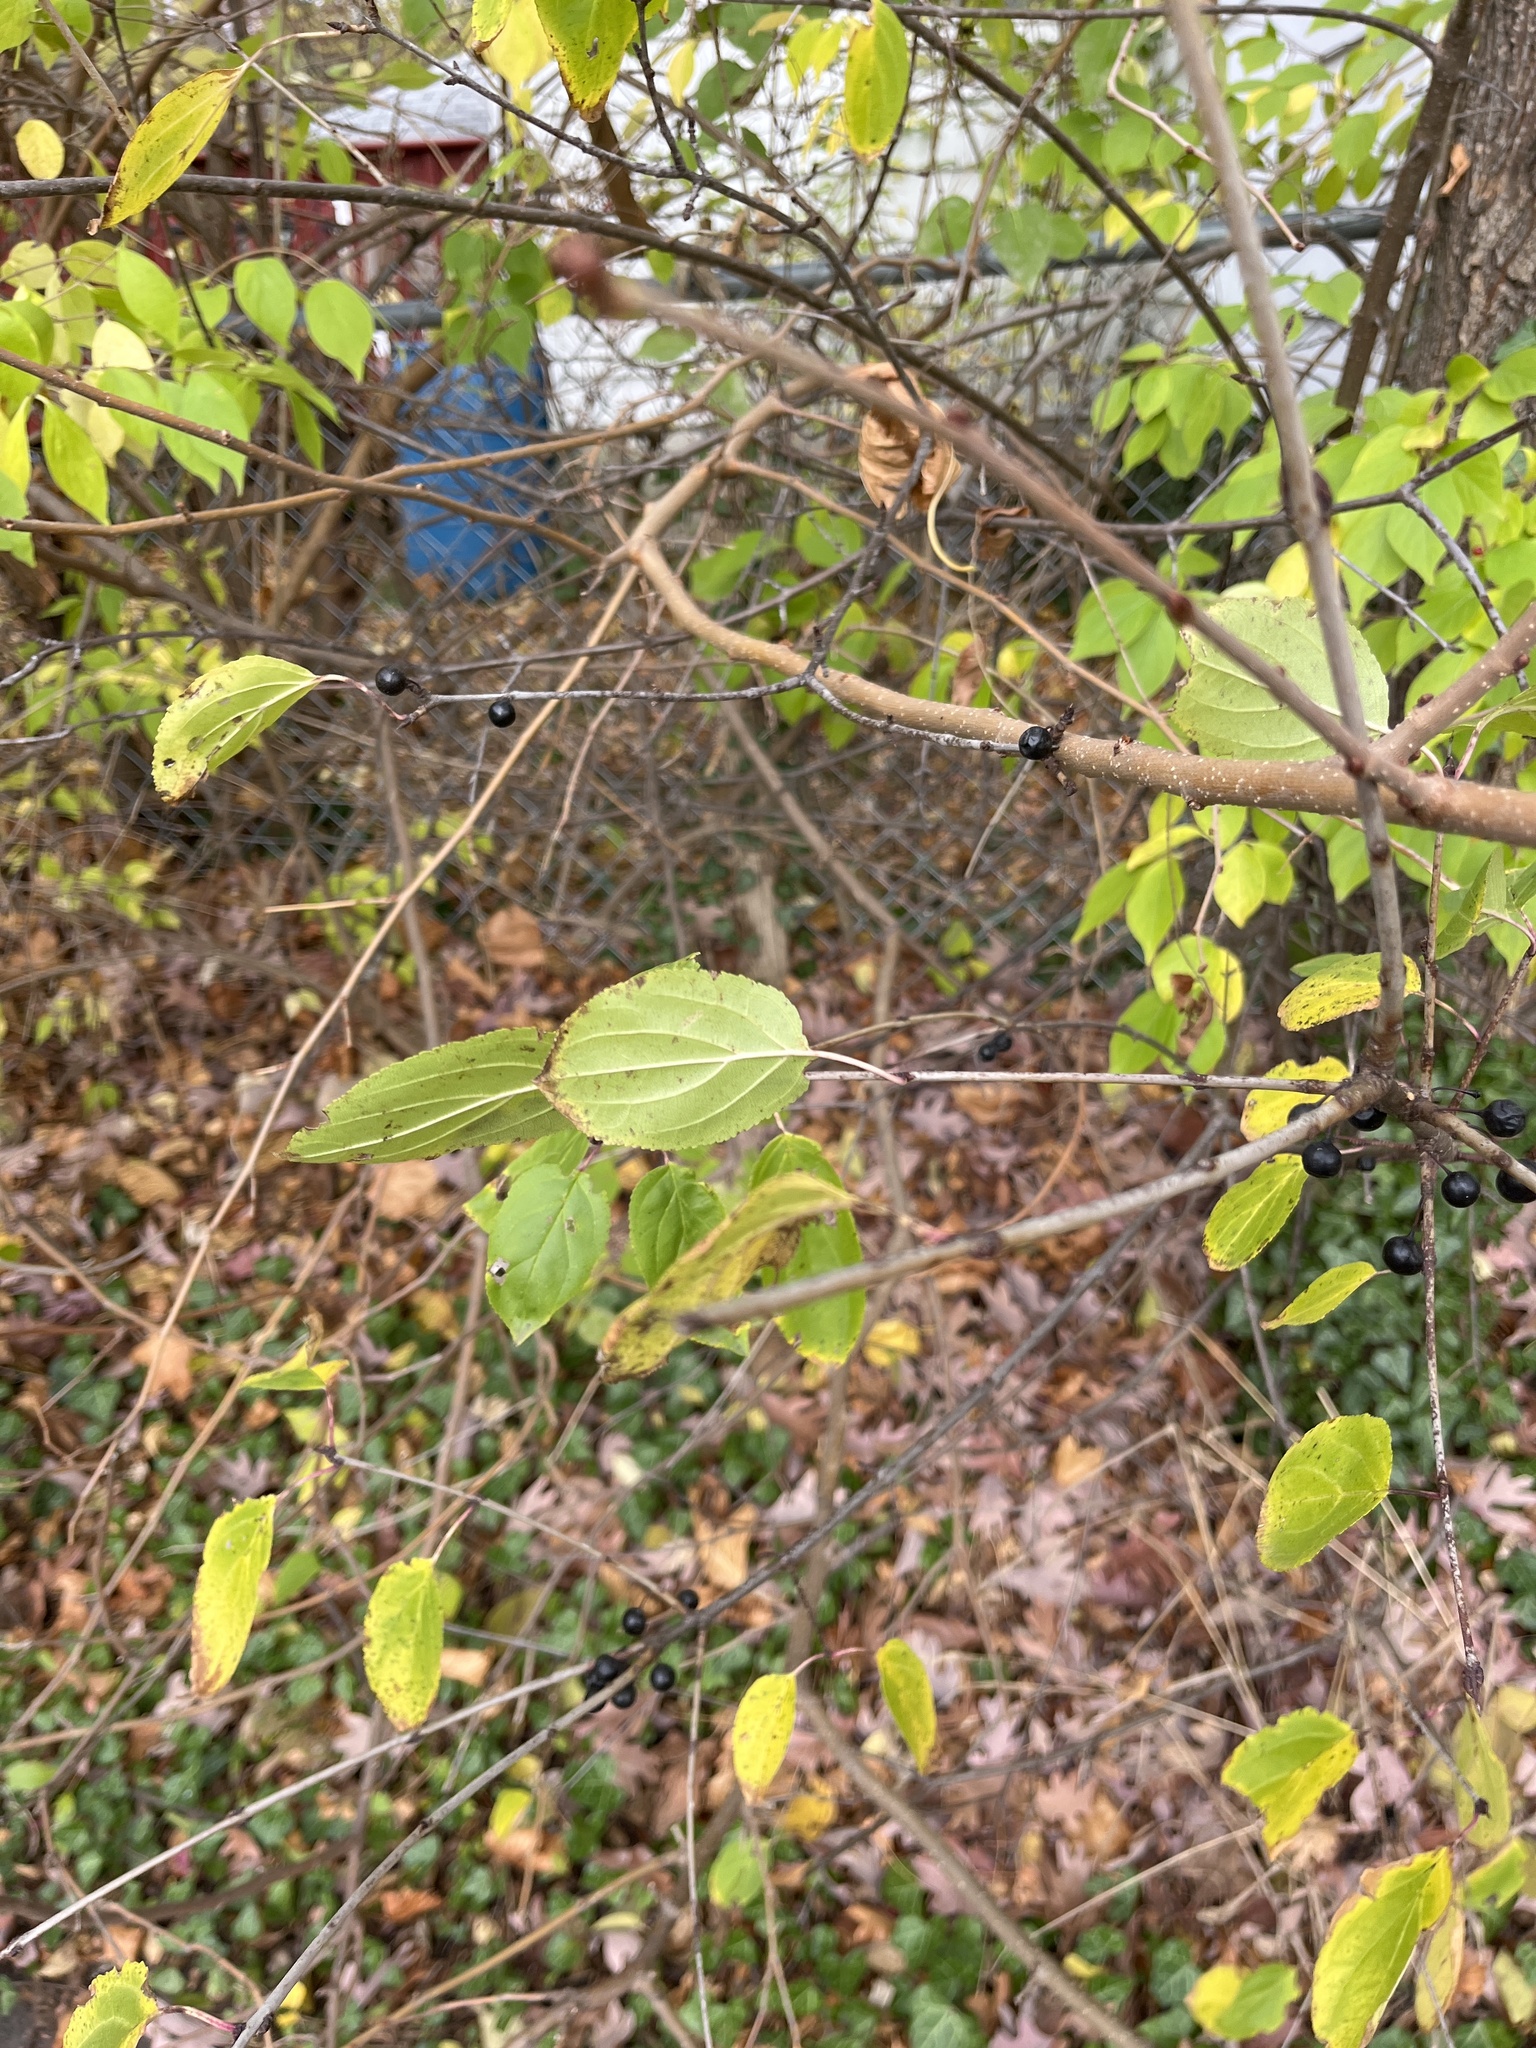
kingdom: Plantae
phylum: Tracheophyta
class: Magnoliopsida
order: Rosales
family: Rhamnaceae
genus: Rhamnus
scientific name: Rhamnus cathartica
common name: Common buckthorn
